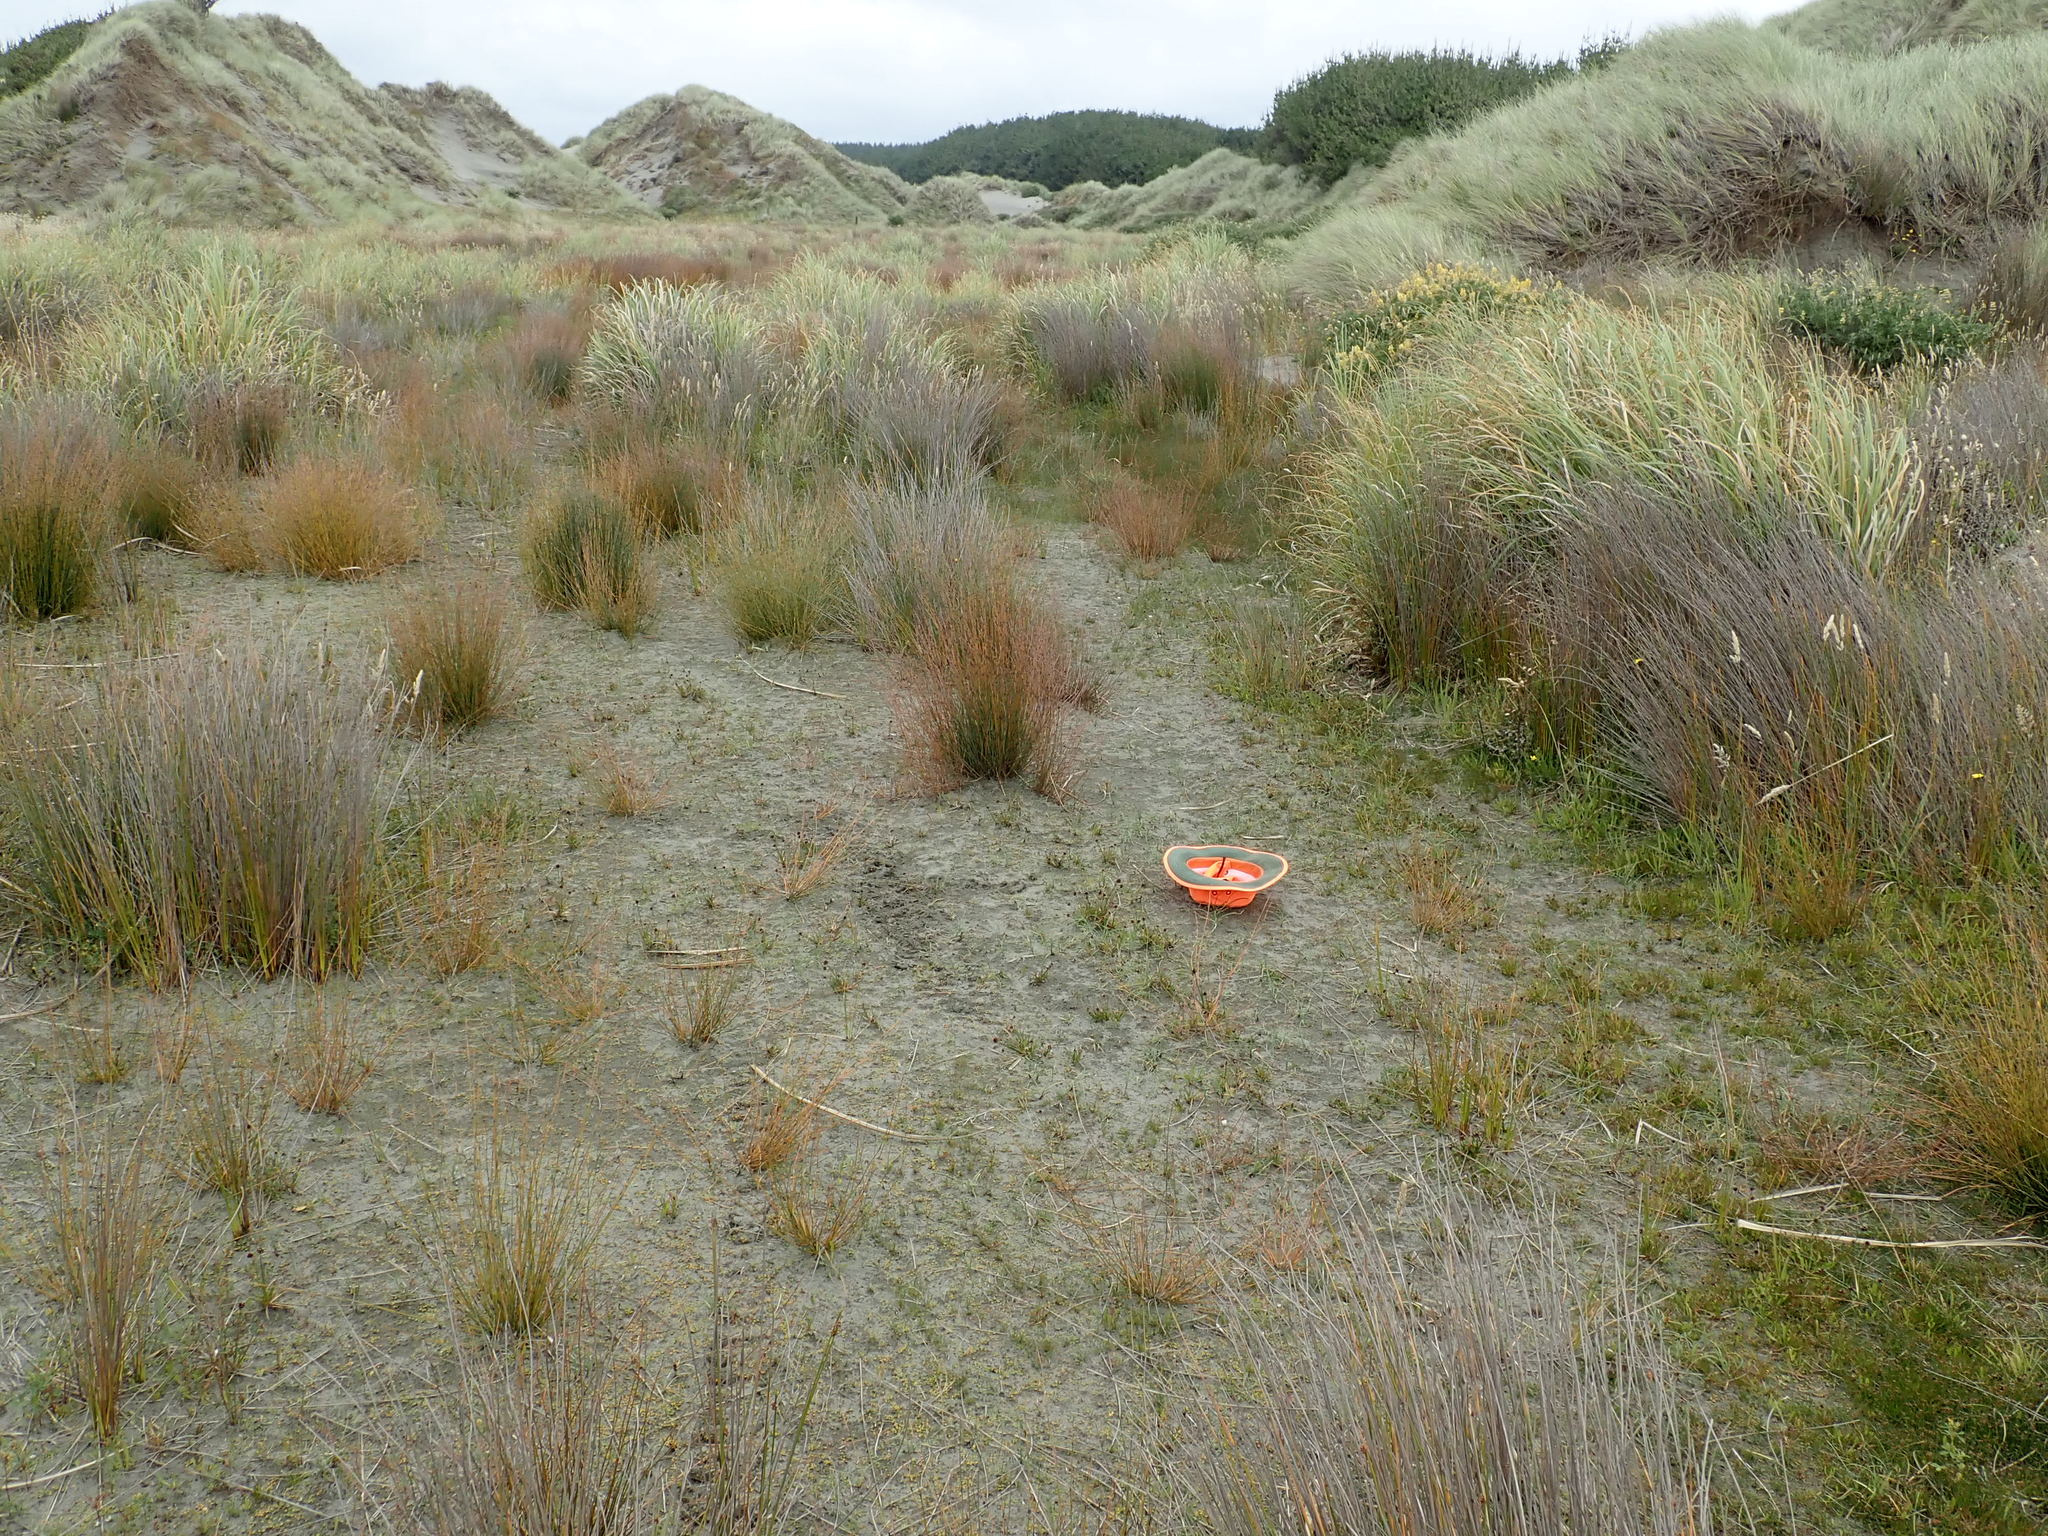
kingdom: Plantae
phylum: Tracheophyta
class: Liliopsida
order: Poales
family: Juncaceae
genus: Juncus
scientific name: Juncus caespiticius
